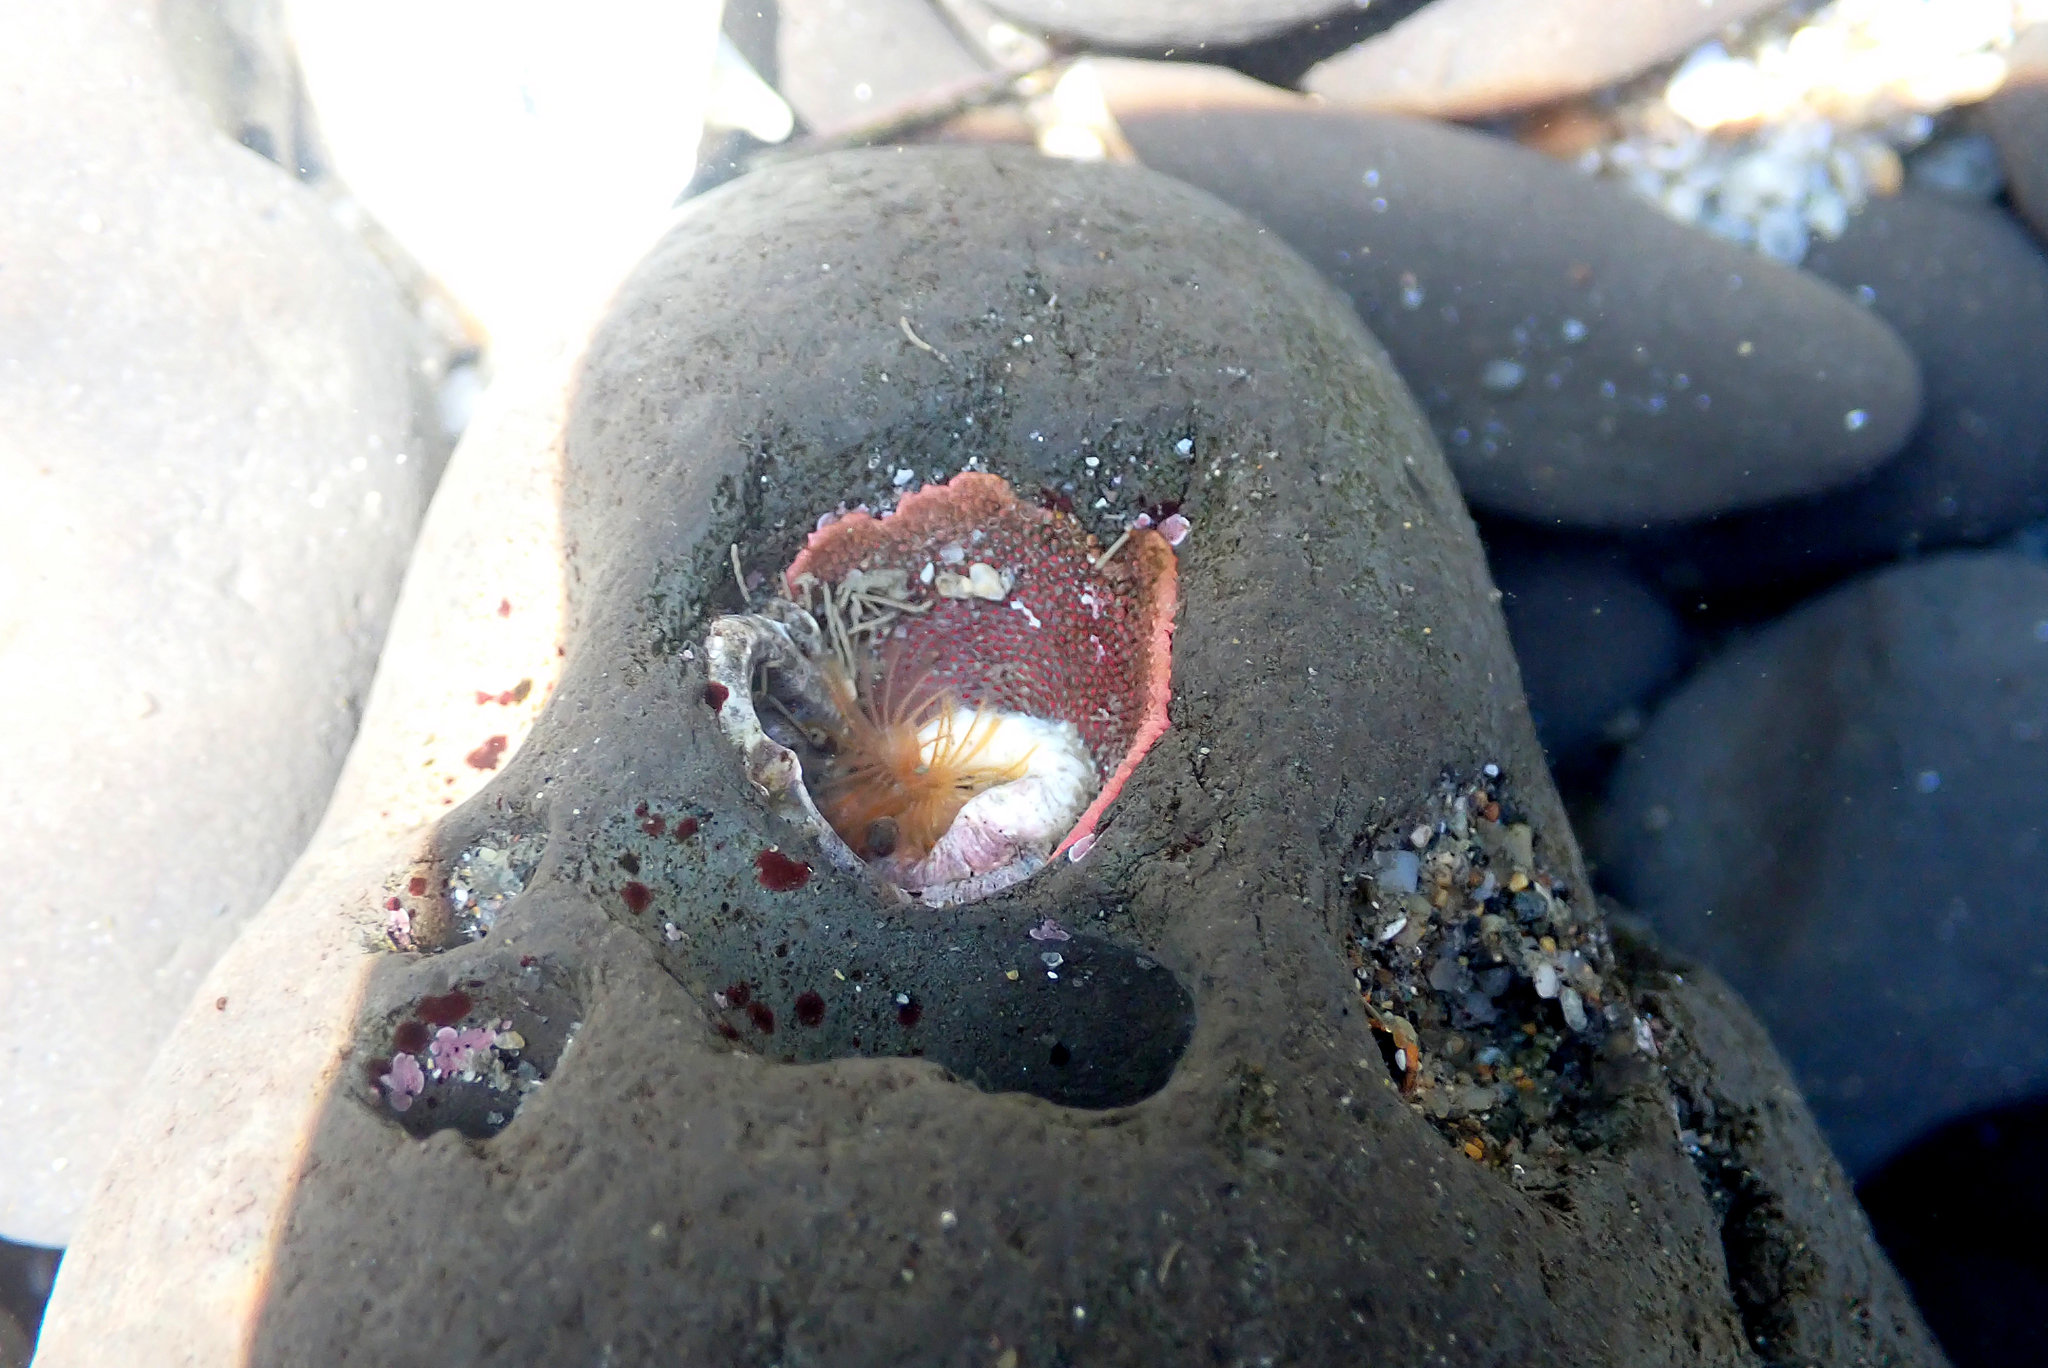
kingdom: Animalia
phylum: Bryozoa
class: Gymnolaemata
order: Cheilostomatida
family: Eurystomellidae
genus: Integripelta
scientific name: Integripelta bilabiata
